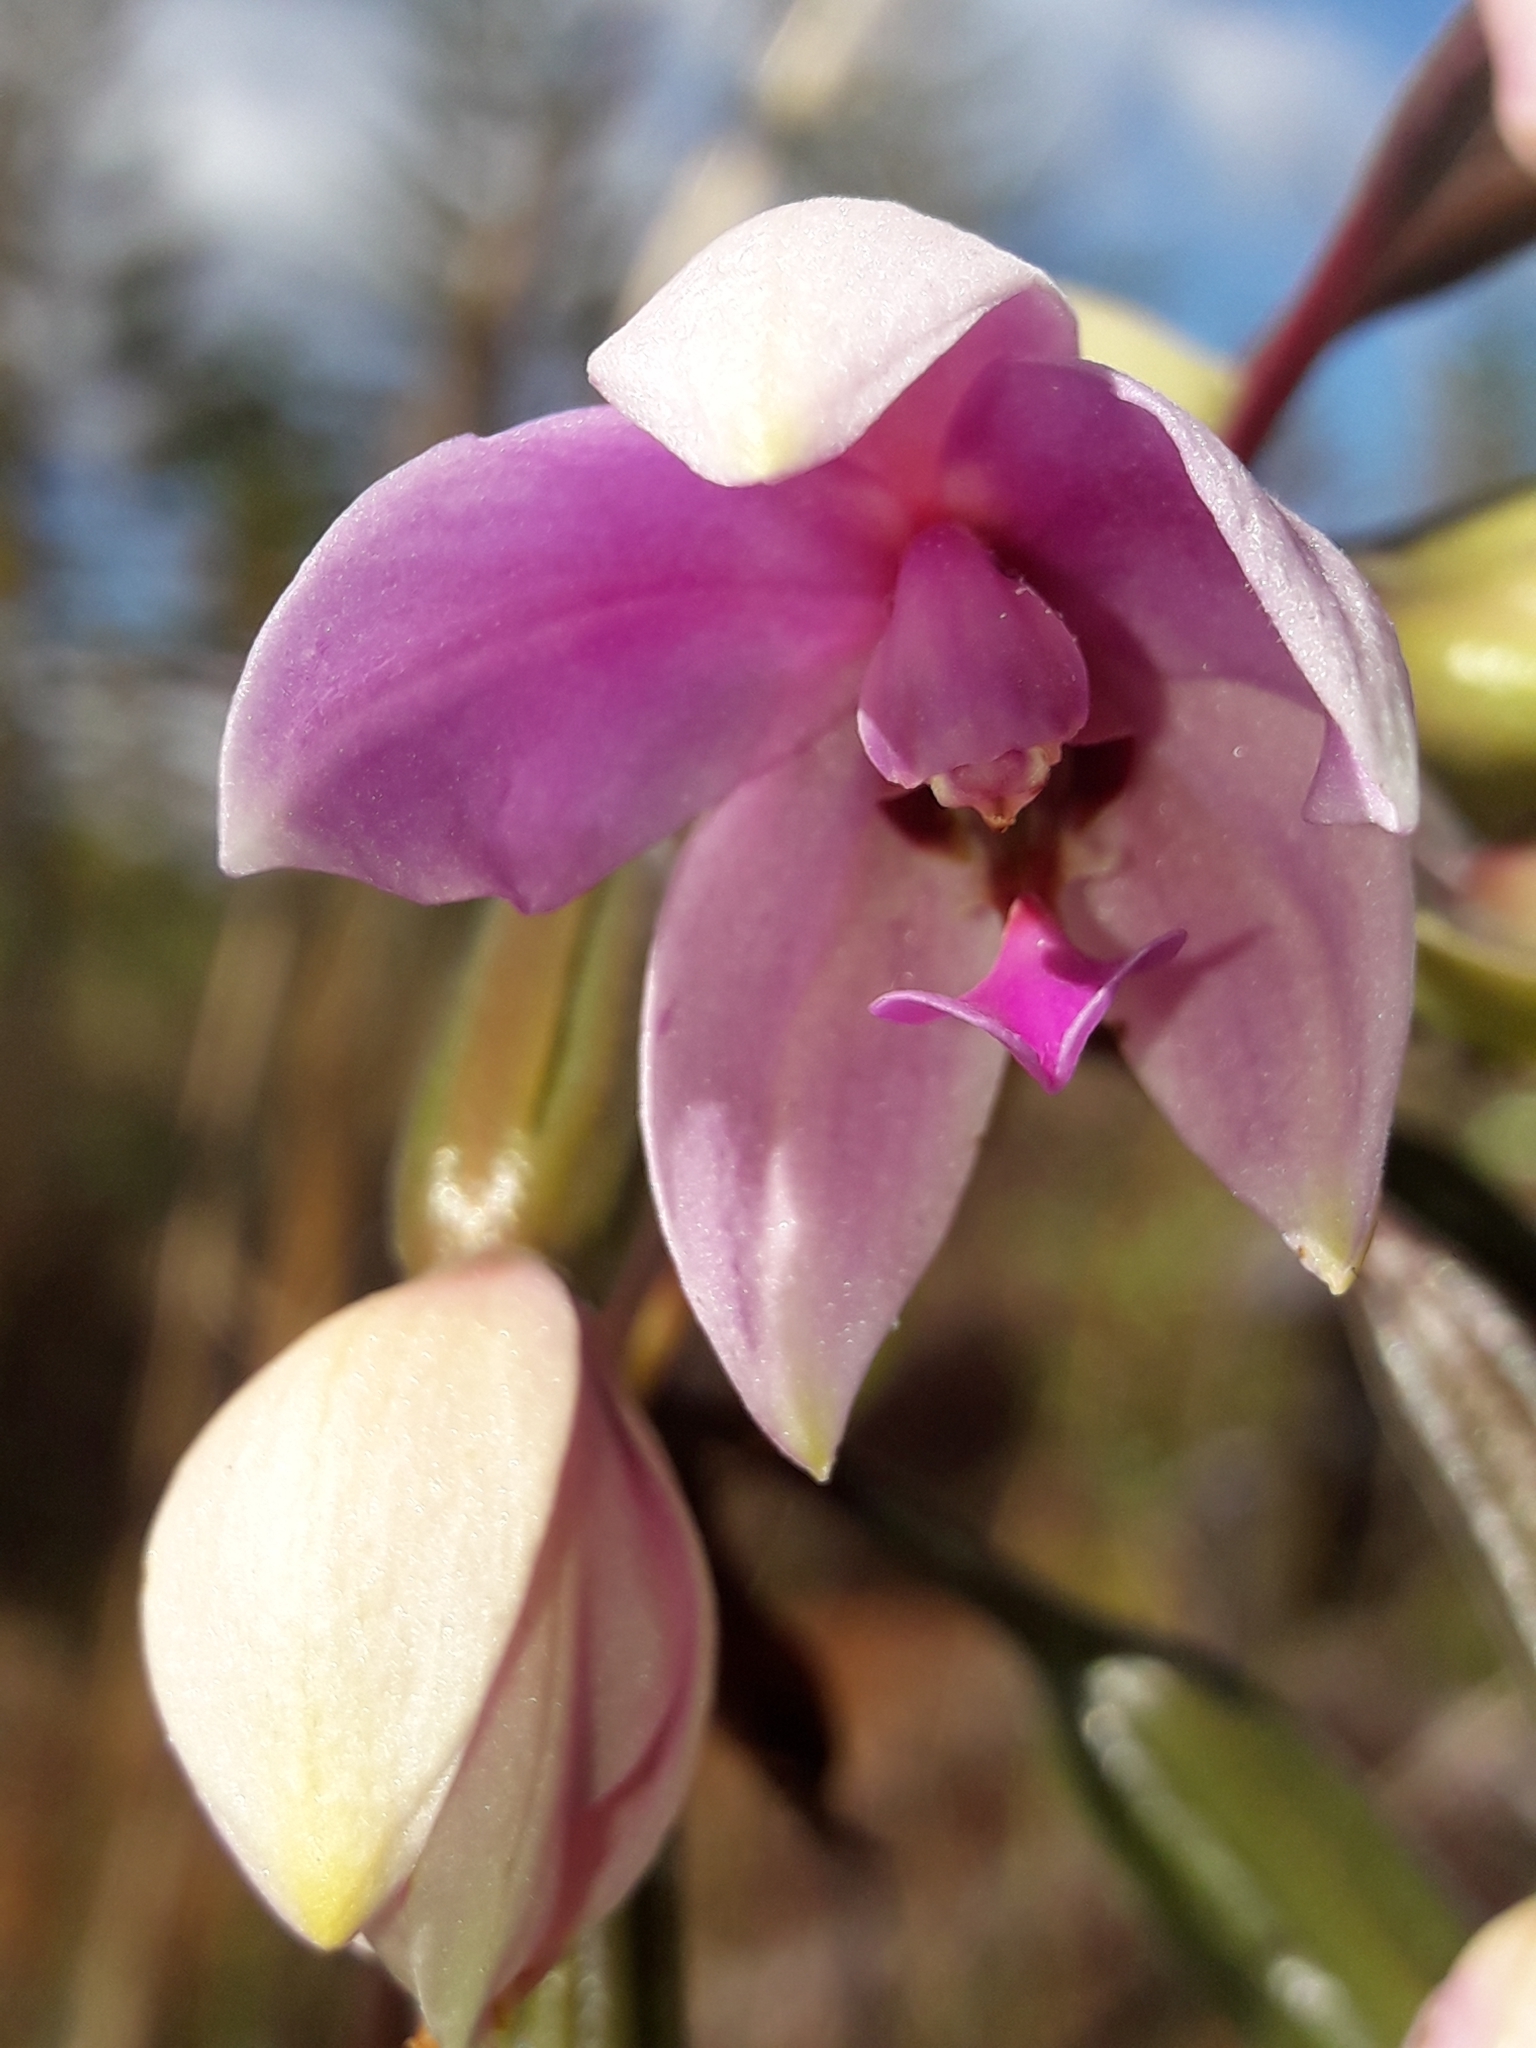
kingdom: Plantae
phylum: Tracheophyta
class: Liliopsida
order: Asparagales
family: Orchidaceae
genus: Spathoglottis
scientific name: Spathoglottis plicata
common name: Philippine ground orchid
